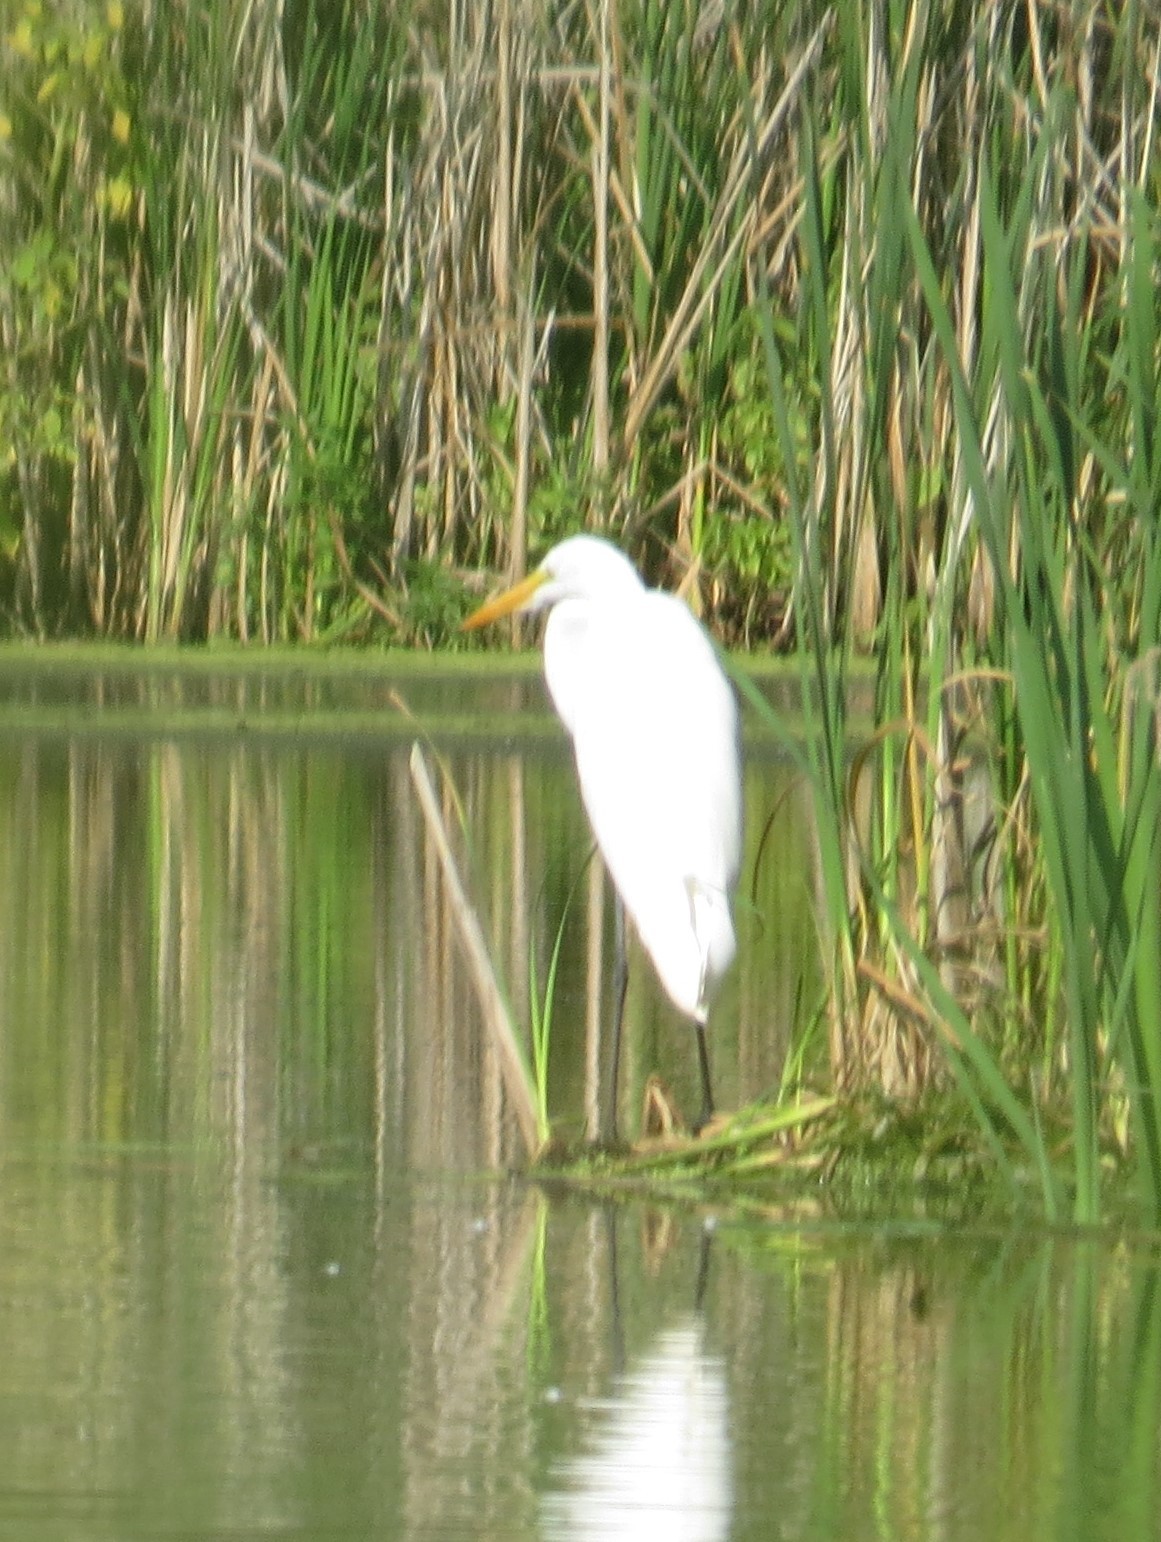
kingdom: Animalia
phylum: Chordata
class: Aves
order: Pelecaniformes
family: Ardeidae
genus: Ardea
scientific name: Ardea alba
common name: Great egret
